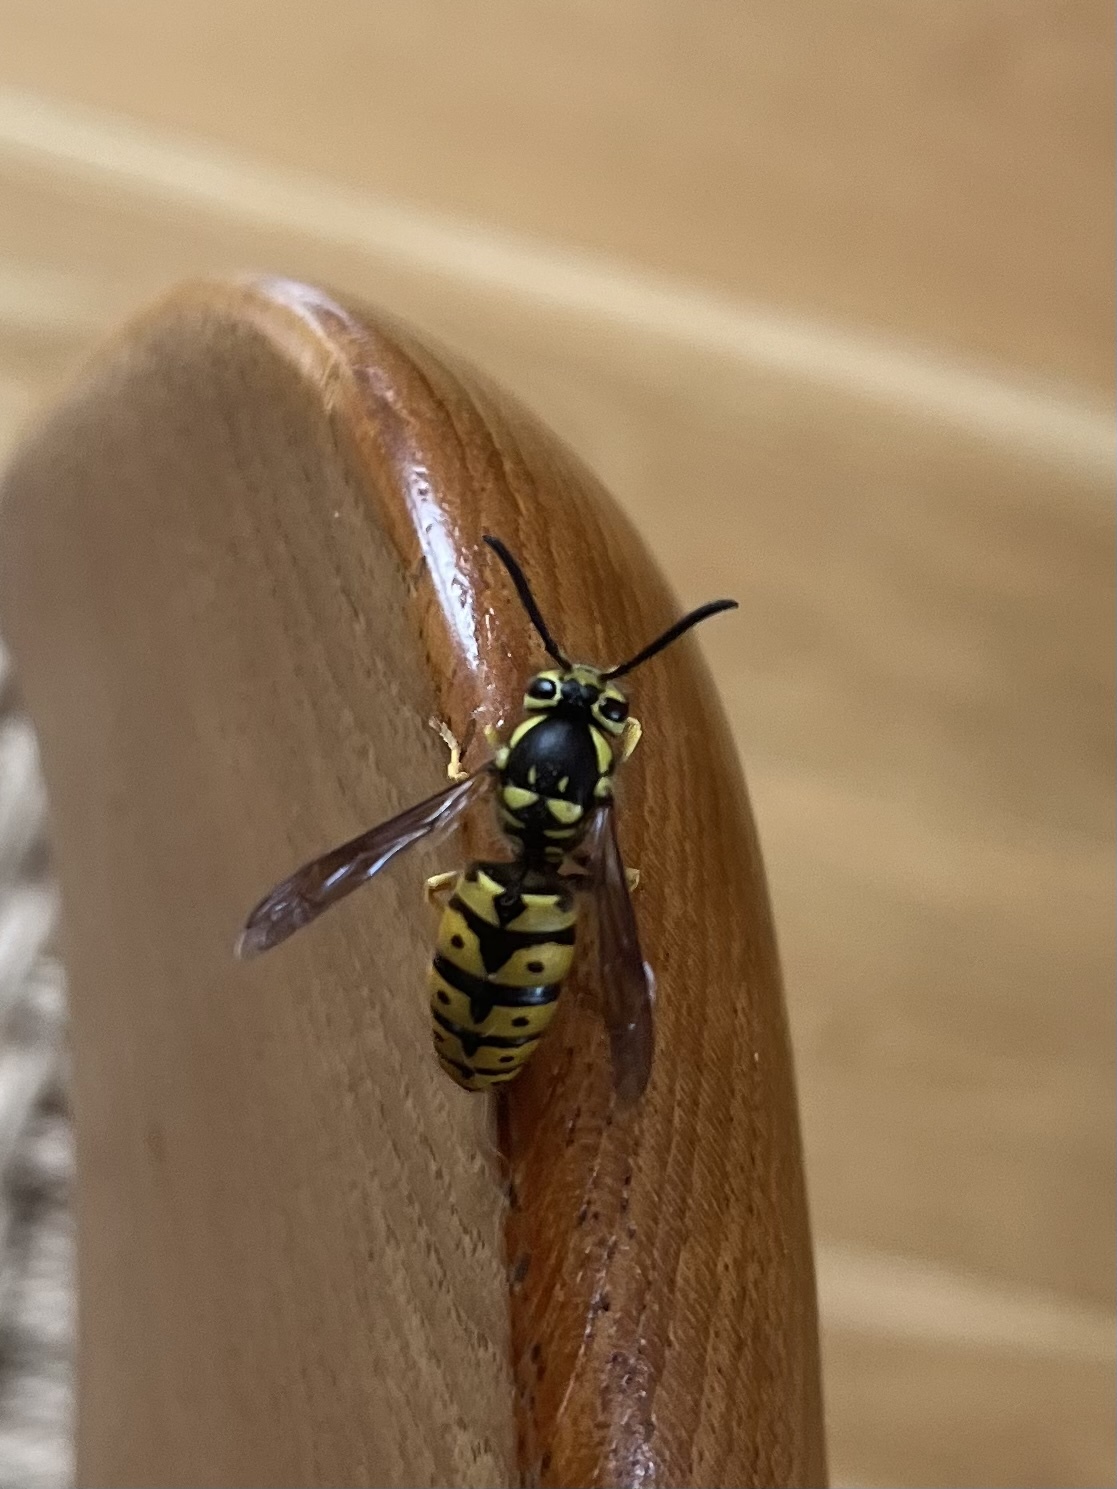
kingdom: Animalia
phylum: Arthropoda
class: Insecta
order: Hymenoptera
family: Vespidae
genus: Vespula
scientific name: Vespula pensylvanica
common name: Western yellowjacket
